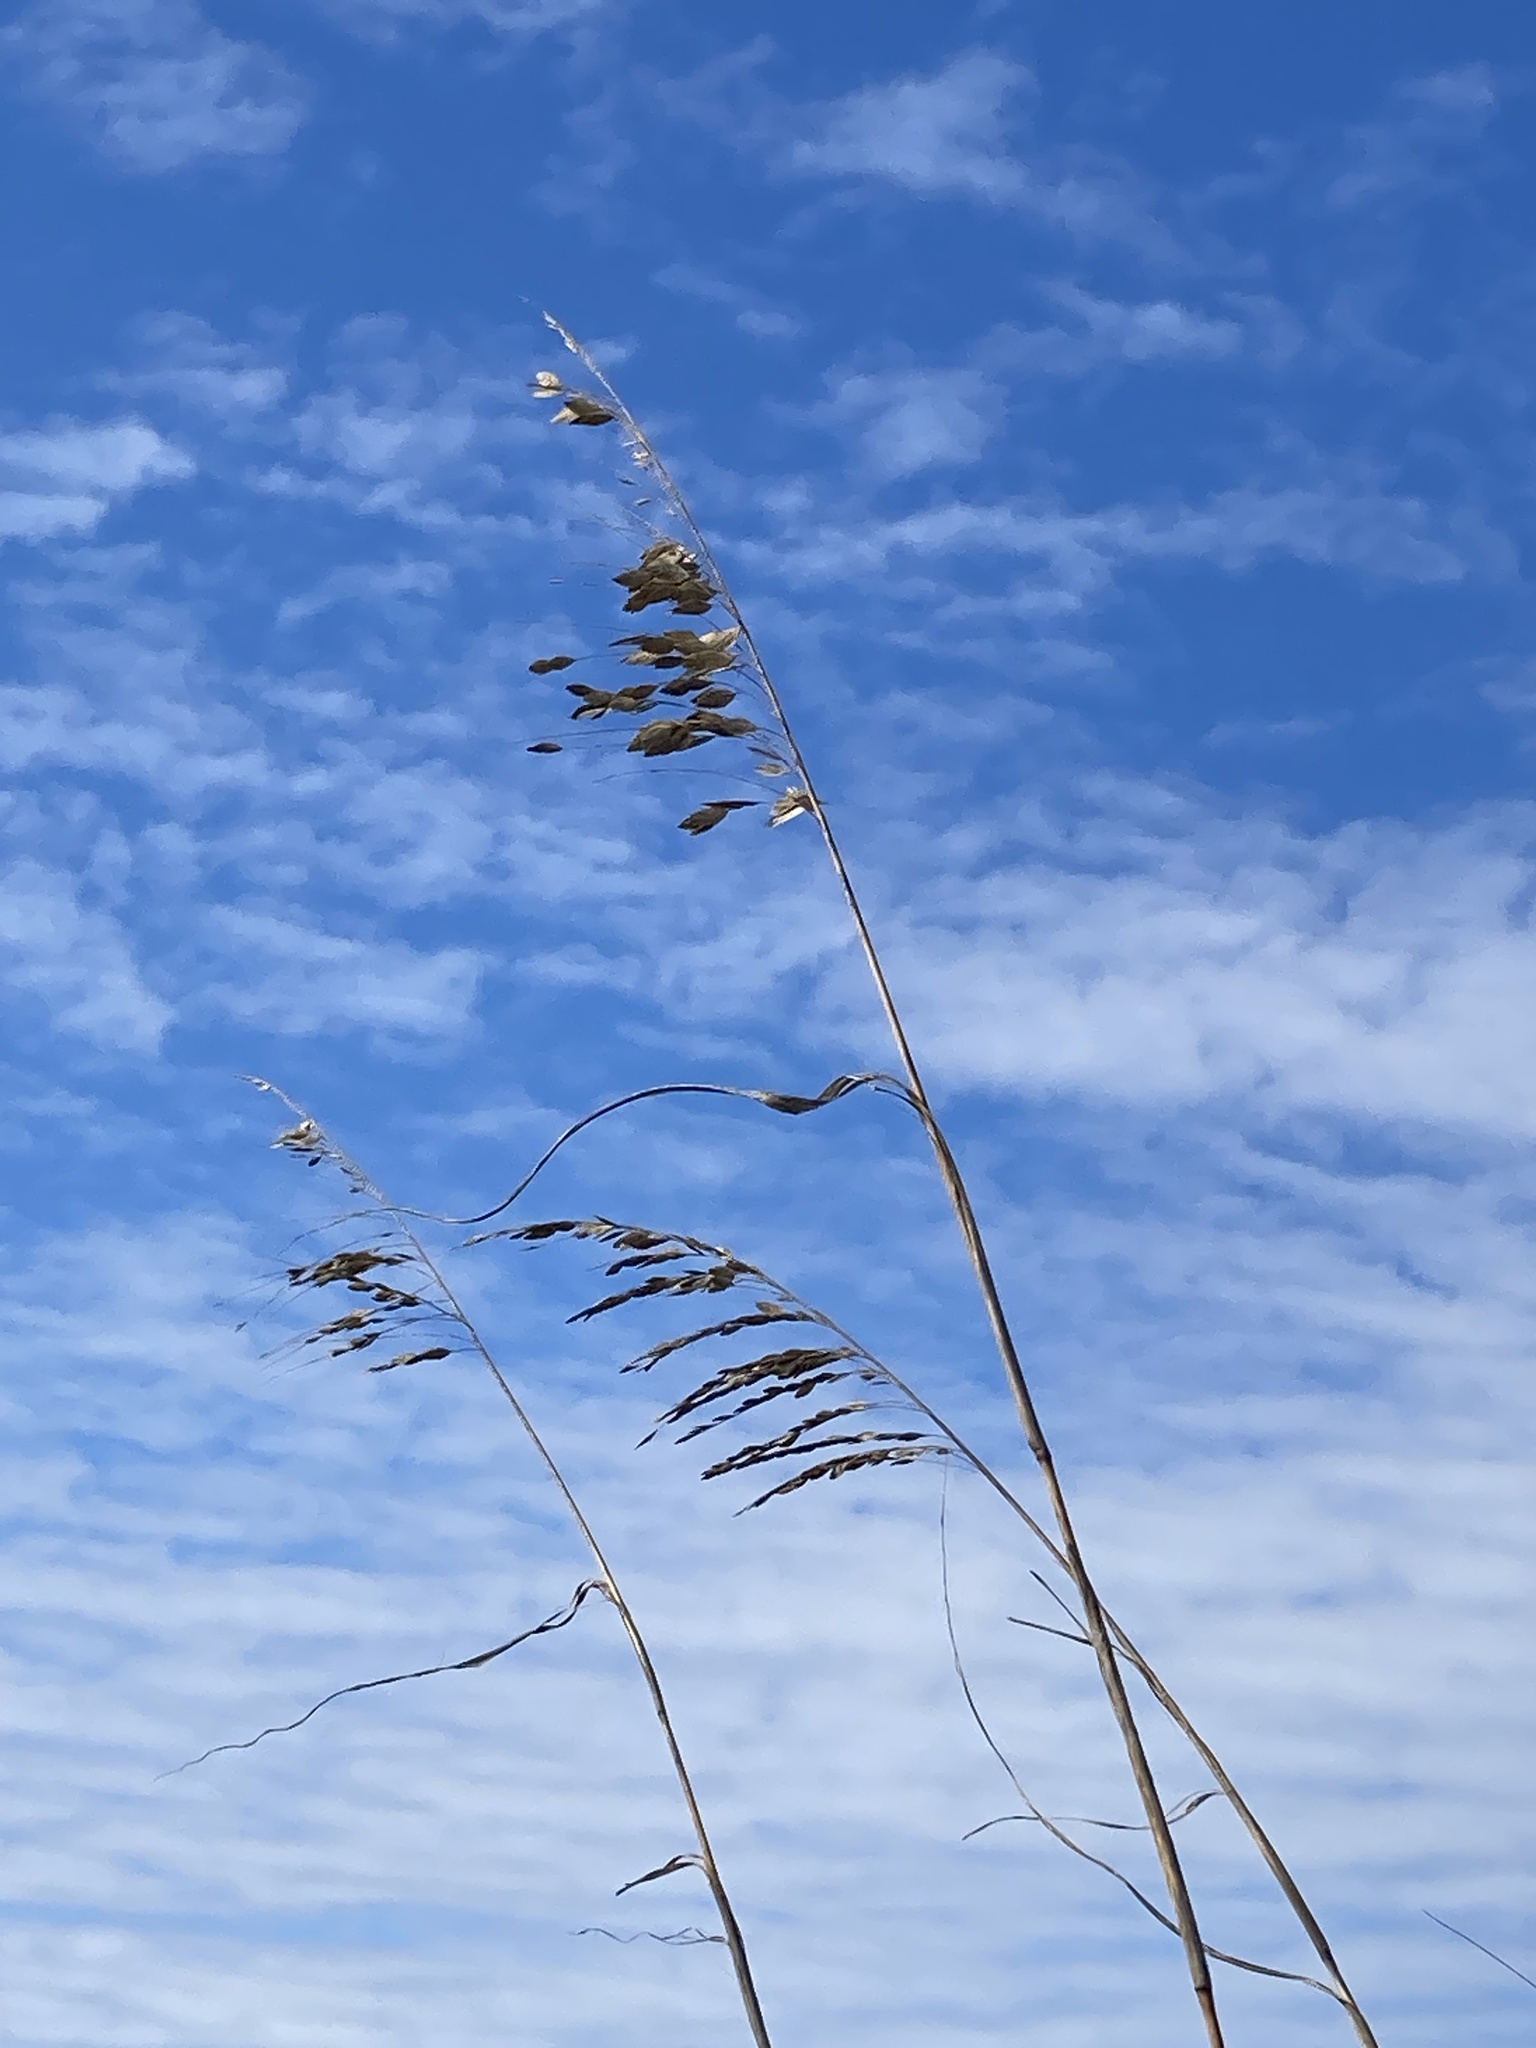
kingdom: Plantae
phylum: Tracheophyta
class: Liliopsida
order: Poales
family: Poaceae
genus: Uniola
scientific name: Uniola paniculata
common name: Seaside-oats
